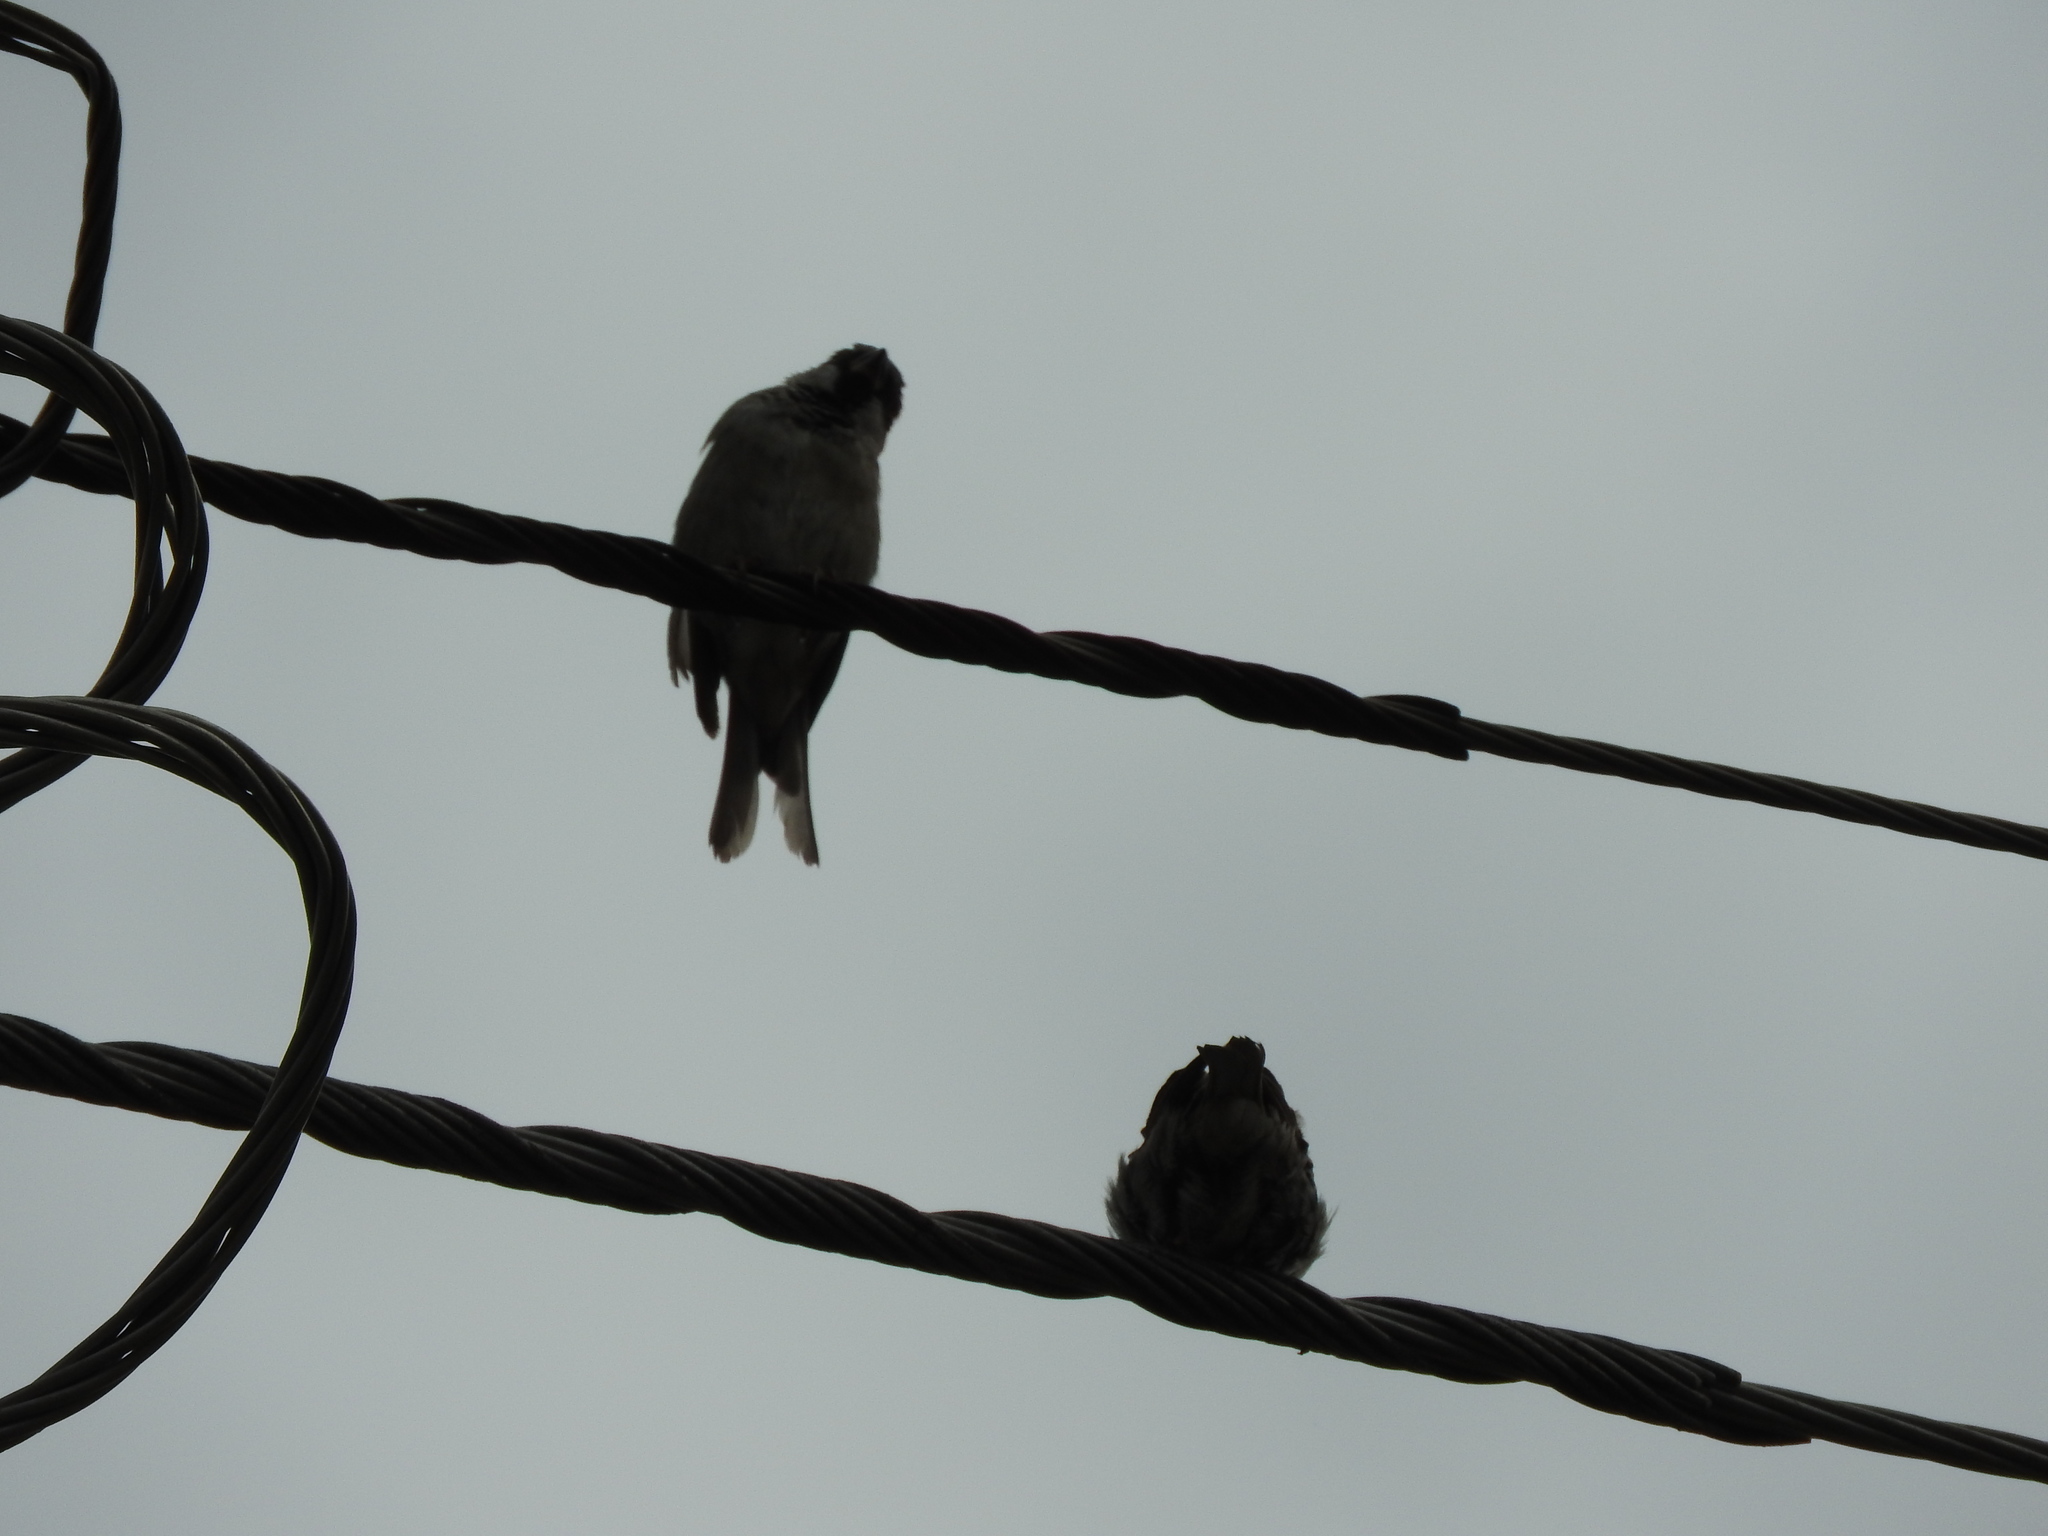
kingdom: Animalia
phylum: Chordata
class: Aves
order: Passeriformes
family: Passeridae
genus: Passer
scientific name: Passer domesticus
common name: House sparrow
